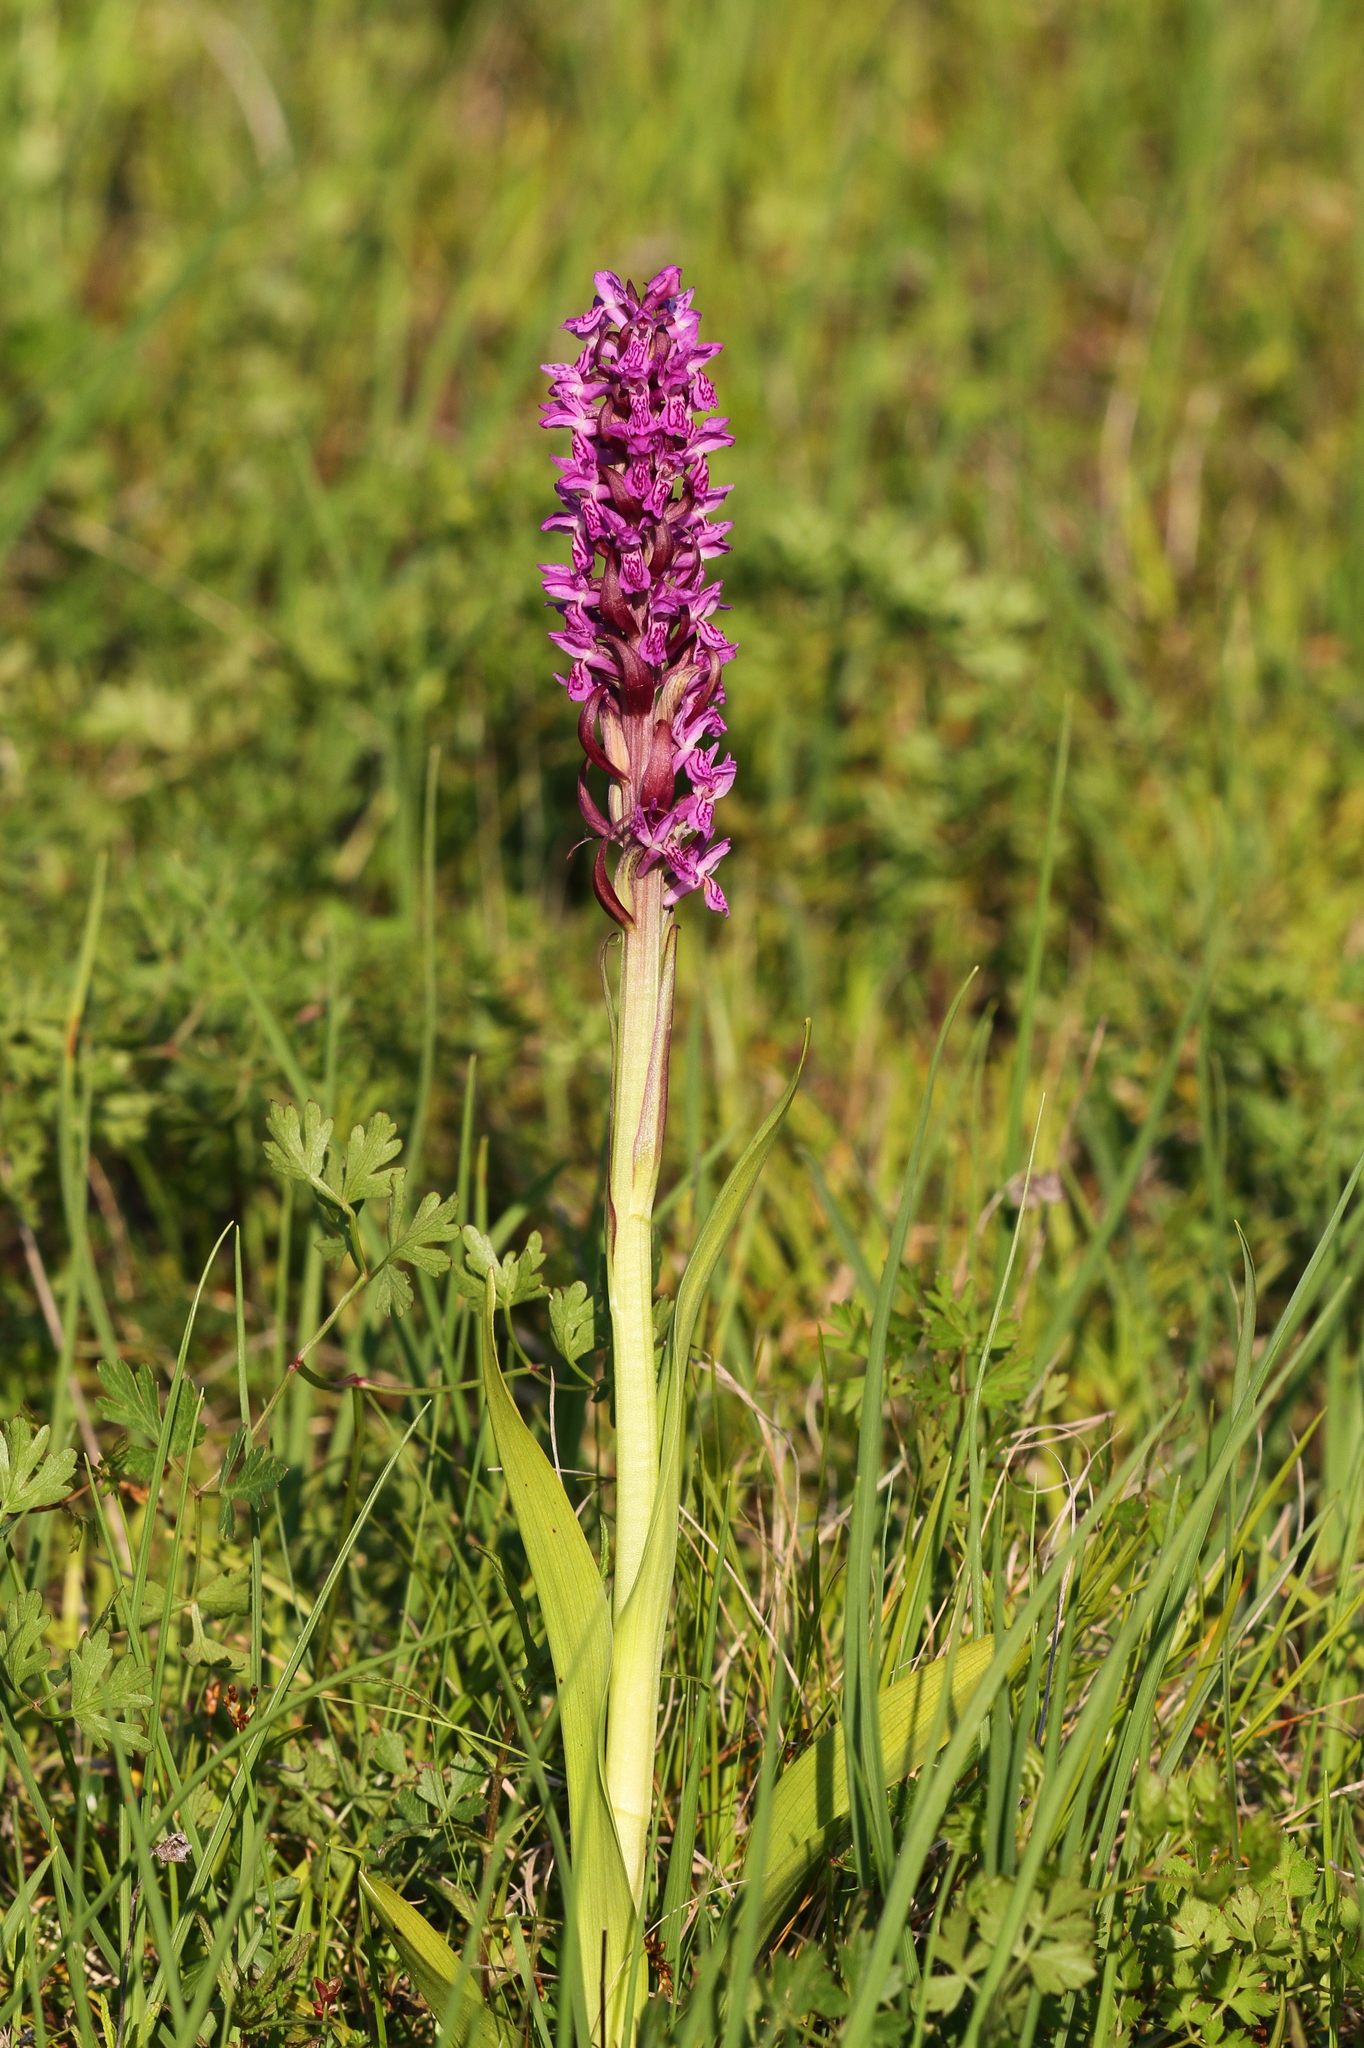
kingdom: Plantae
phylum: Tracheophyta
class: Liliopsida
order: Asparagales
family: Orchidaceae
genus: Dactylorhiza
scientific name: Dactylorhiza incarnata
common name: Early marsh-orchid
